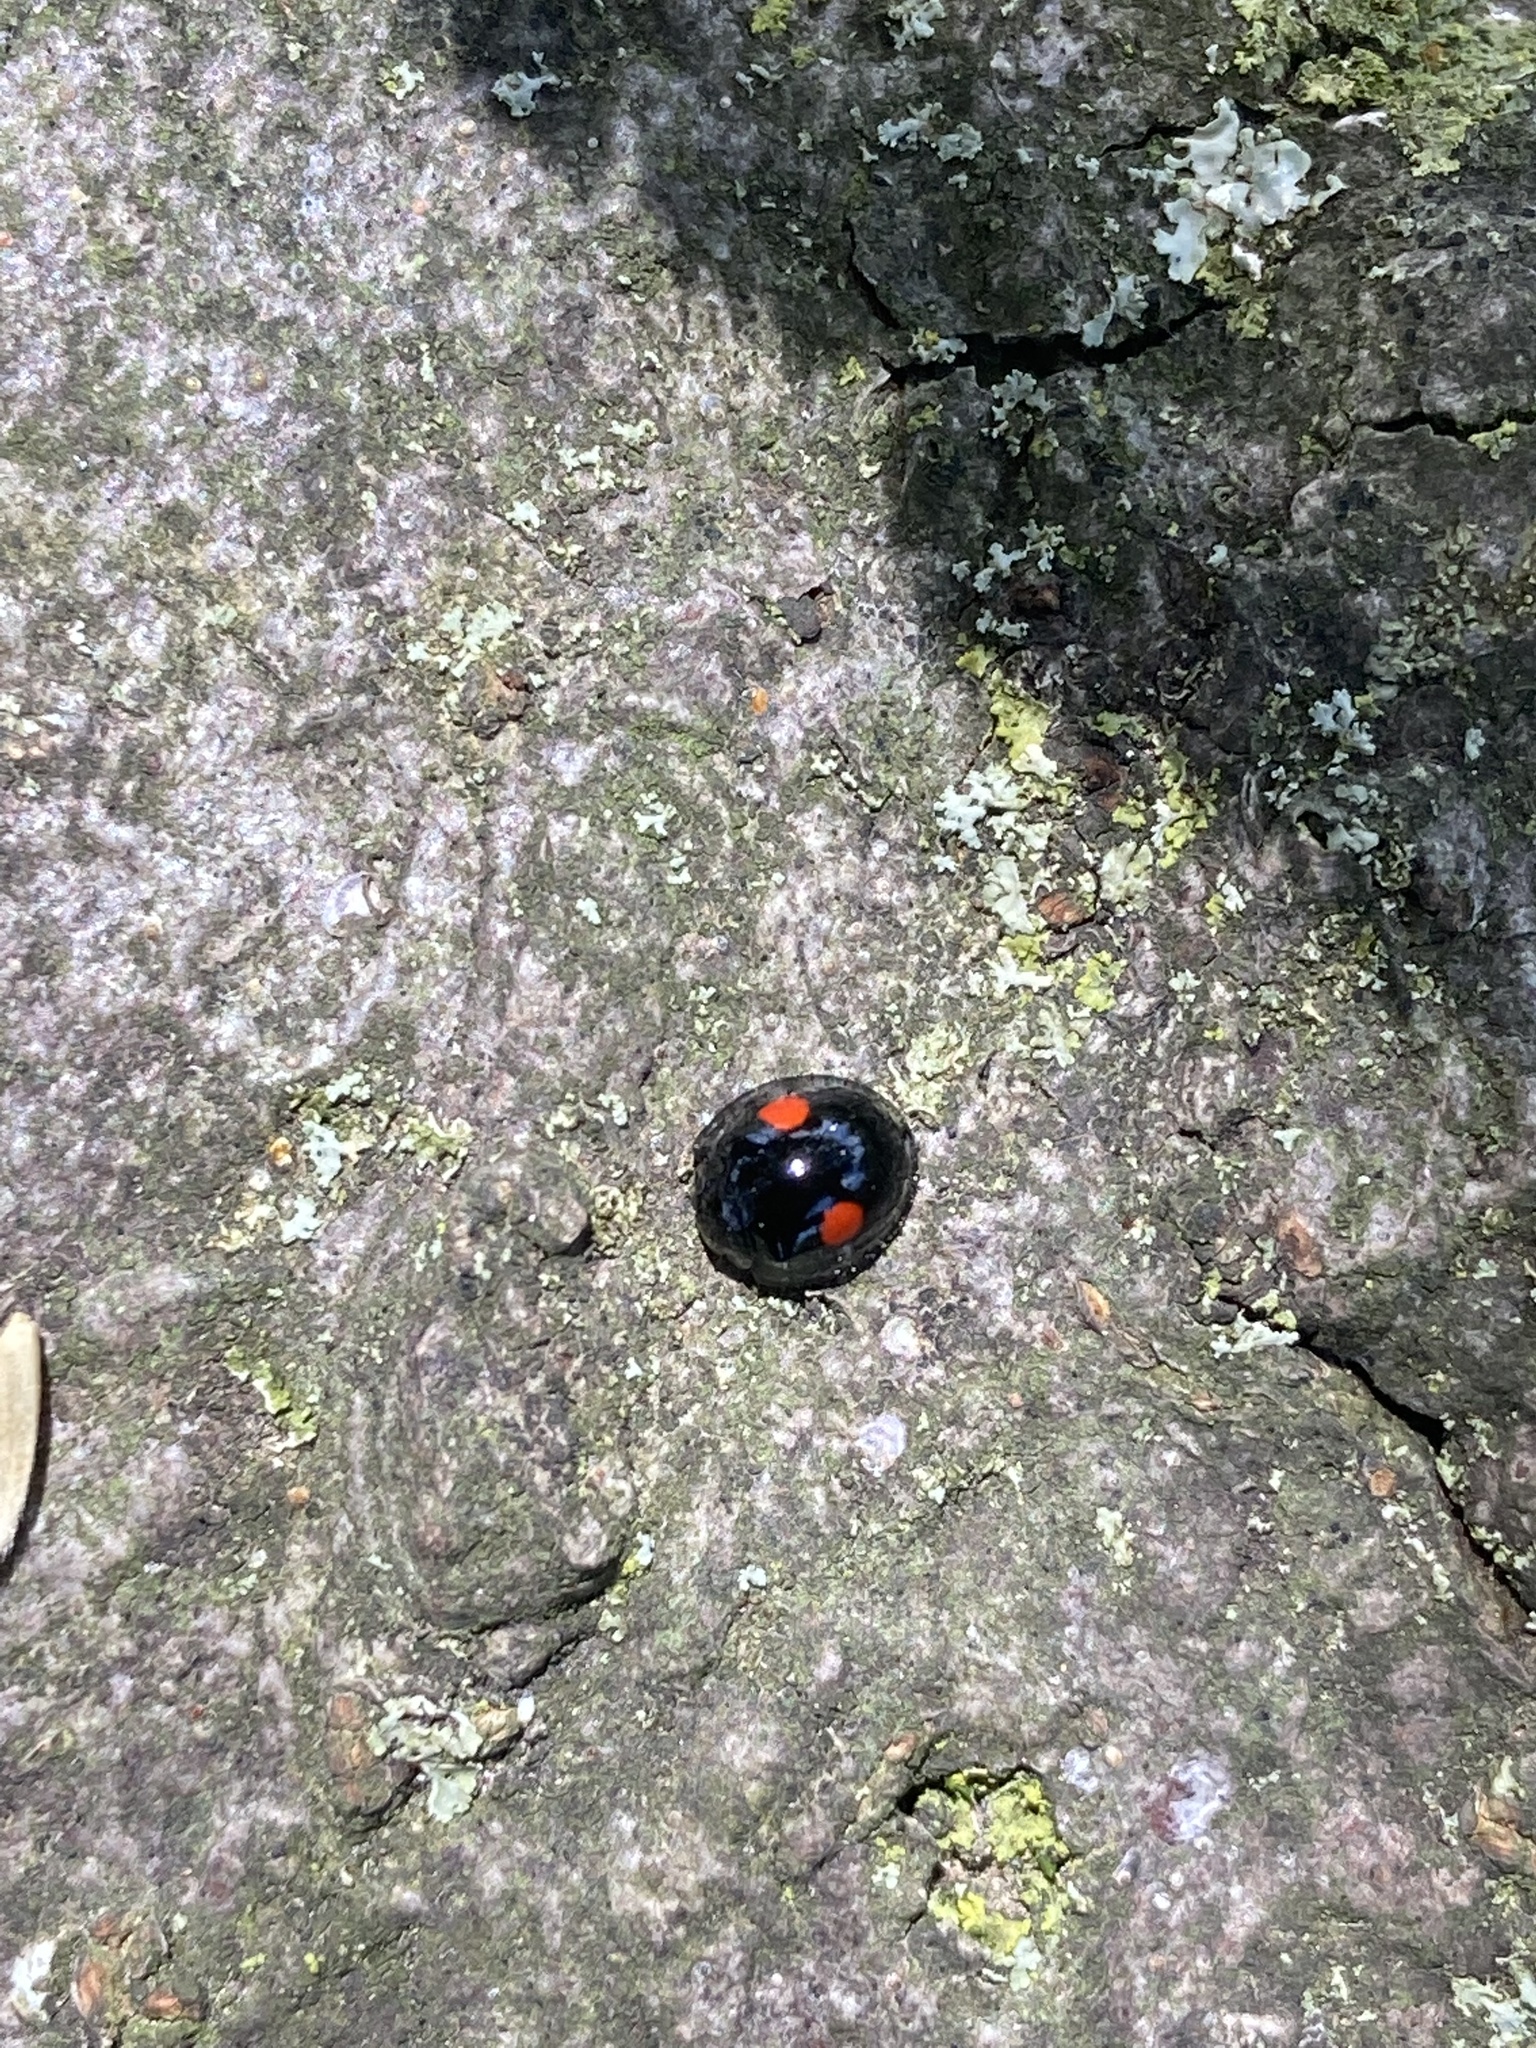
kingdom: Animalia
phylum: Arthropoda
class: Insecta
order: Coleoptera
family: Coccinellidae
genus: Chilocorus
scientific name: Chilocorus stigma
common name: Twicestabbed lady beetle
